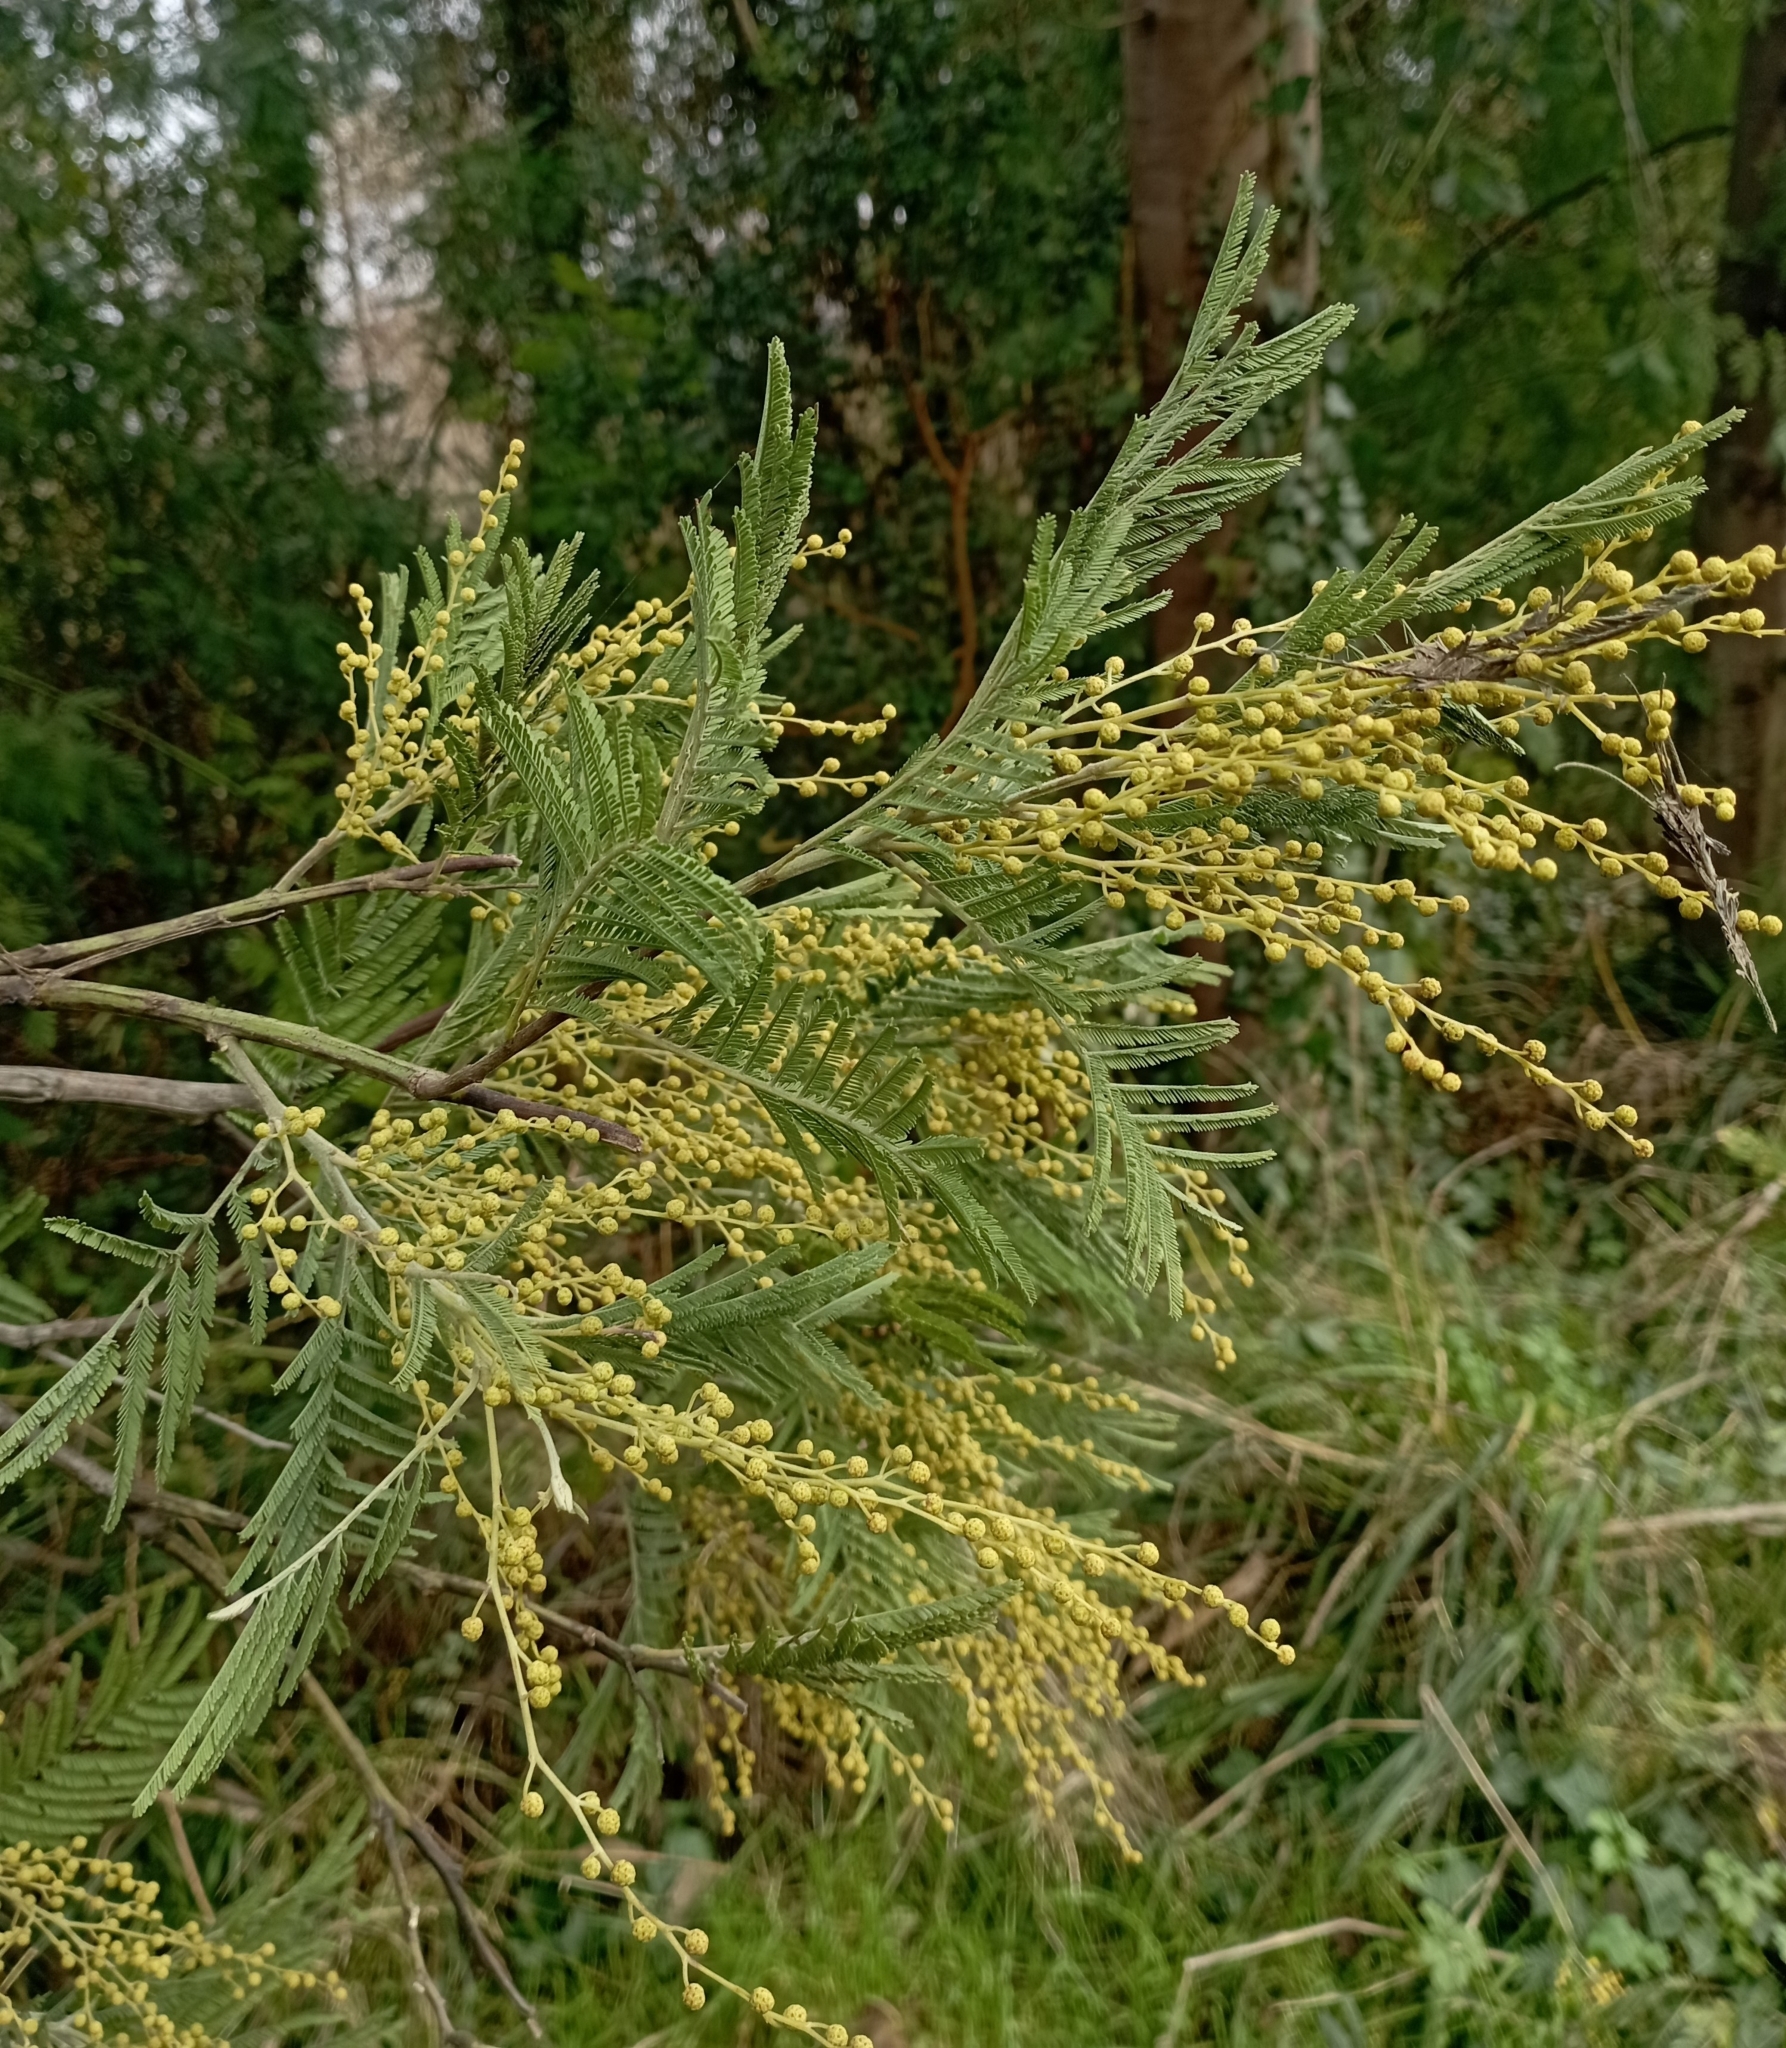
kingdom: Plantae
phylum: Tracheophyta
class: Magnoliopsida
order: Fabales
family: Fabaceae
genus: Acacia
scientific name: Acacia dealbata
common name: Silver wattle
